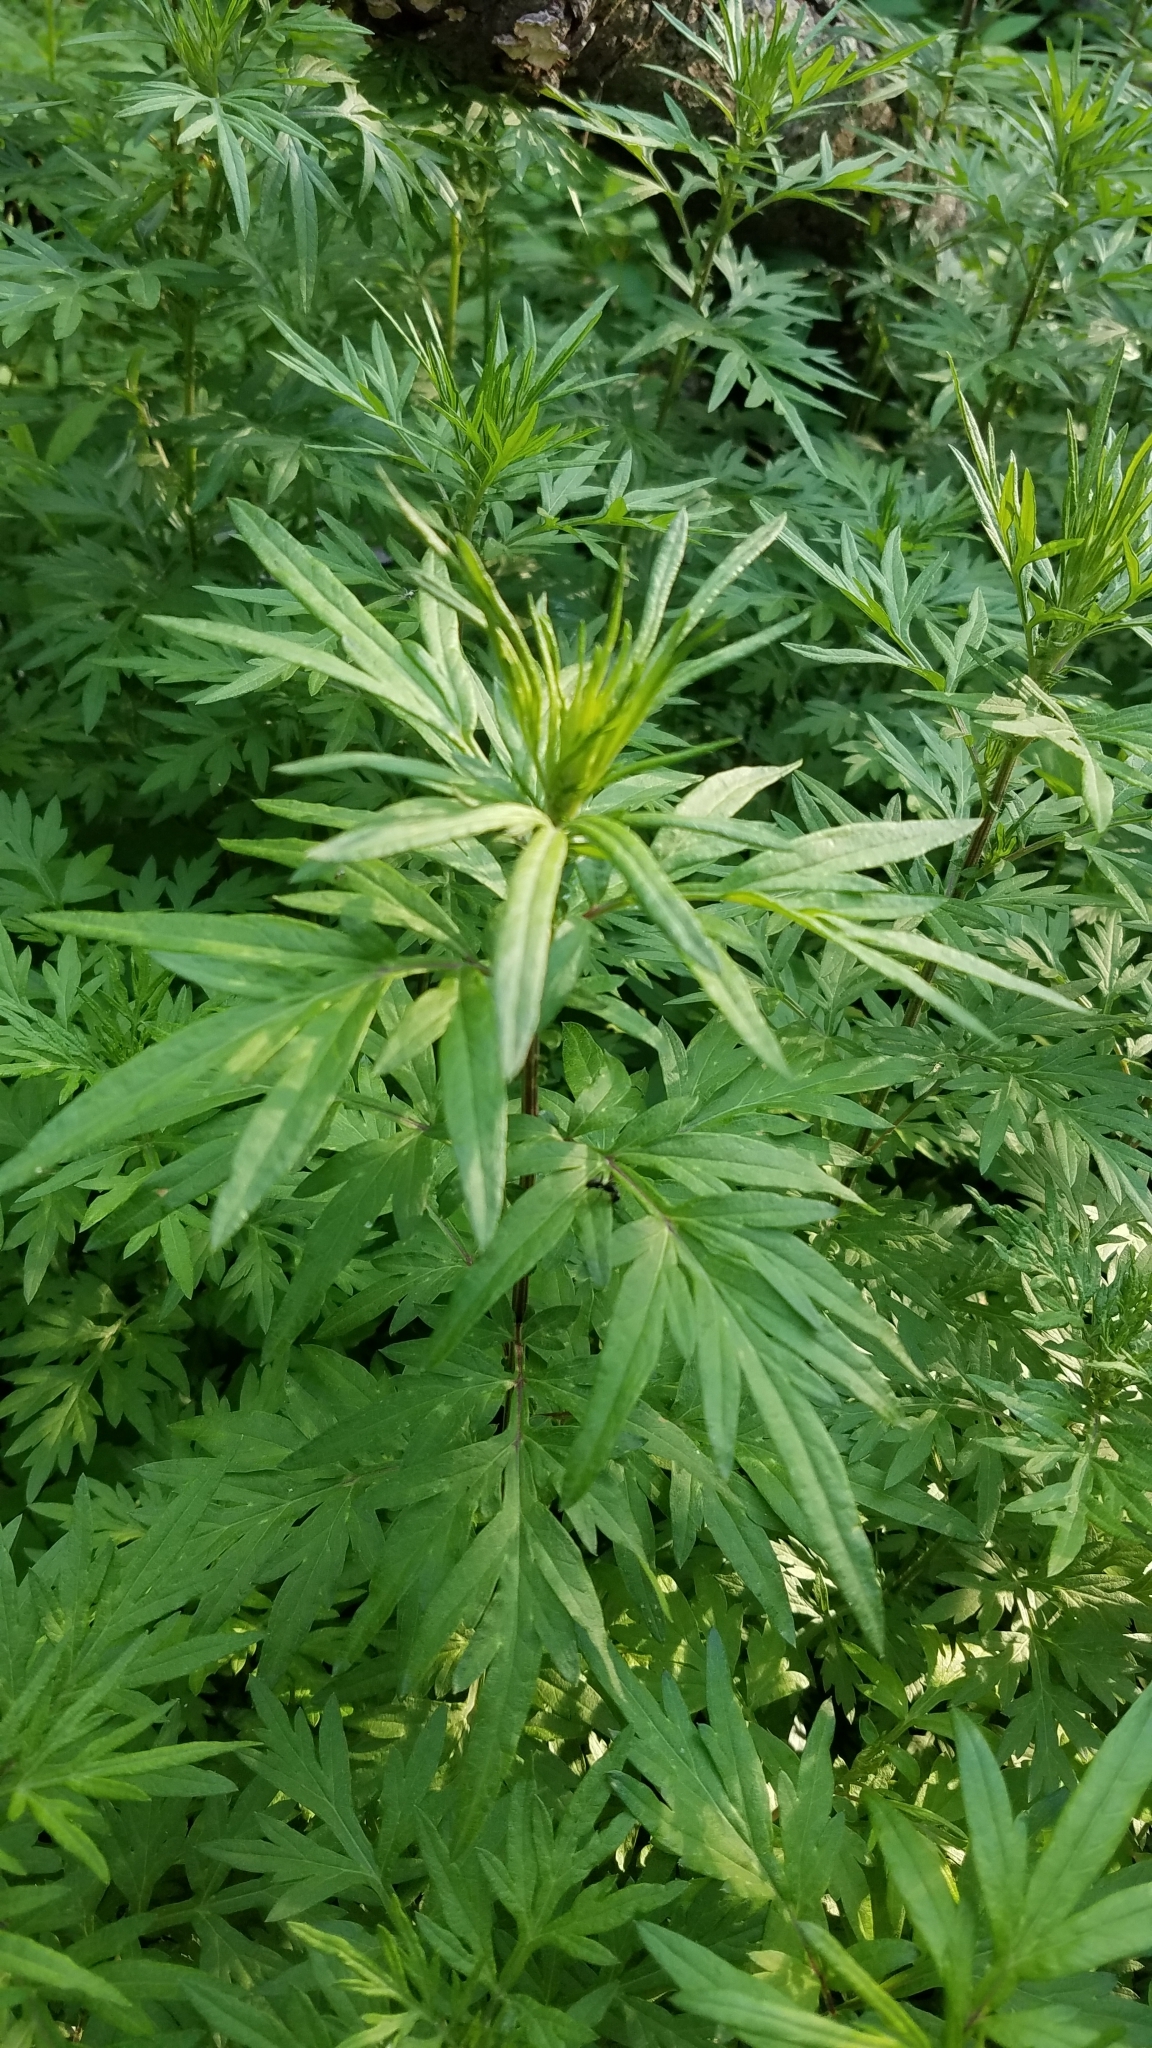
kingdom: Plantae
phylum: Tracheophyta
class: Magnoliopsida
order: Asterales
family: Asteraceae
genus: Artemisia
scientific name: Artemisia vulgaris
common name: Mugwort
